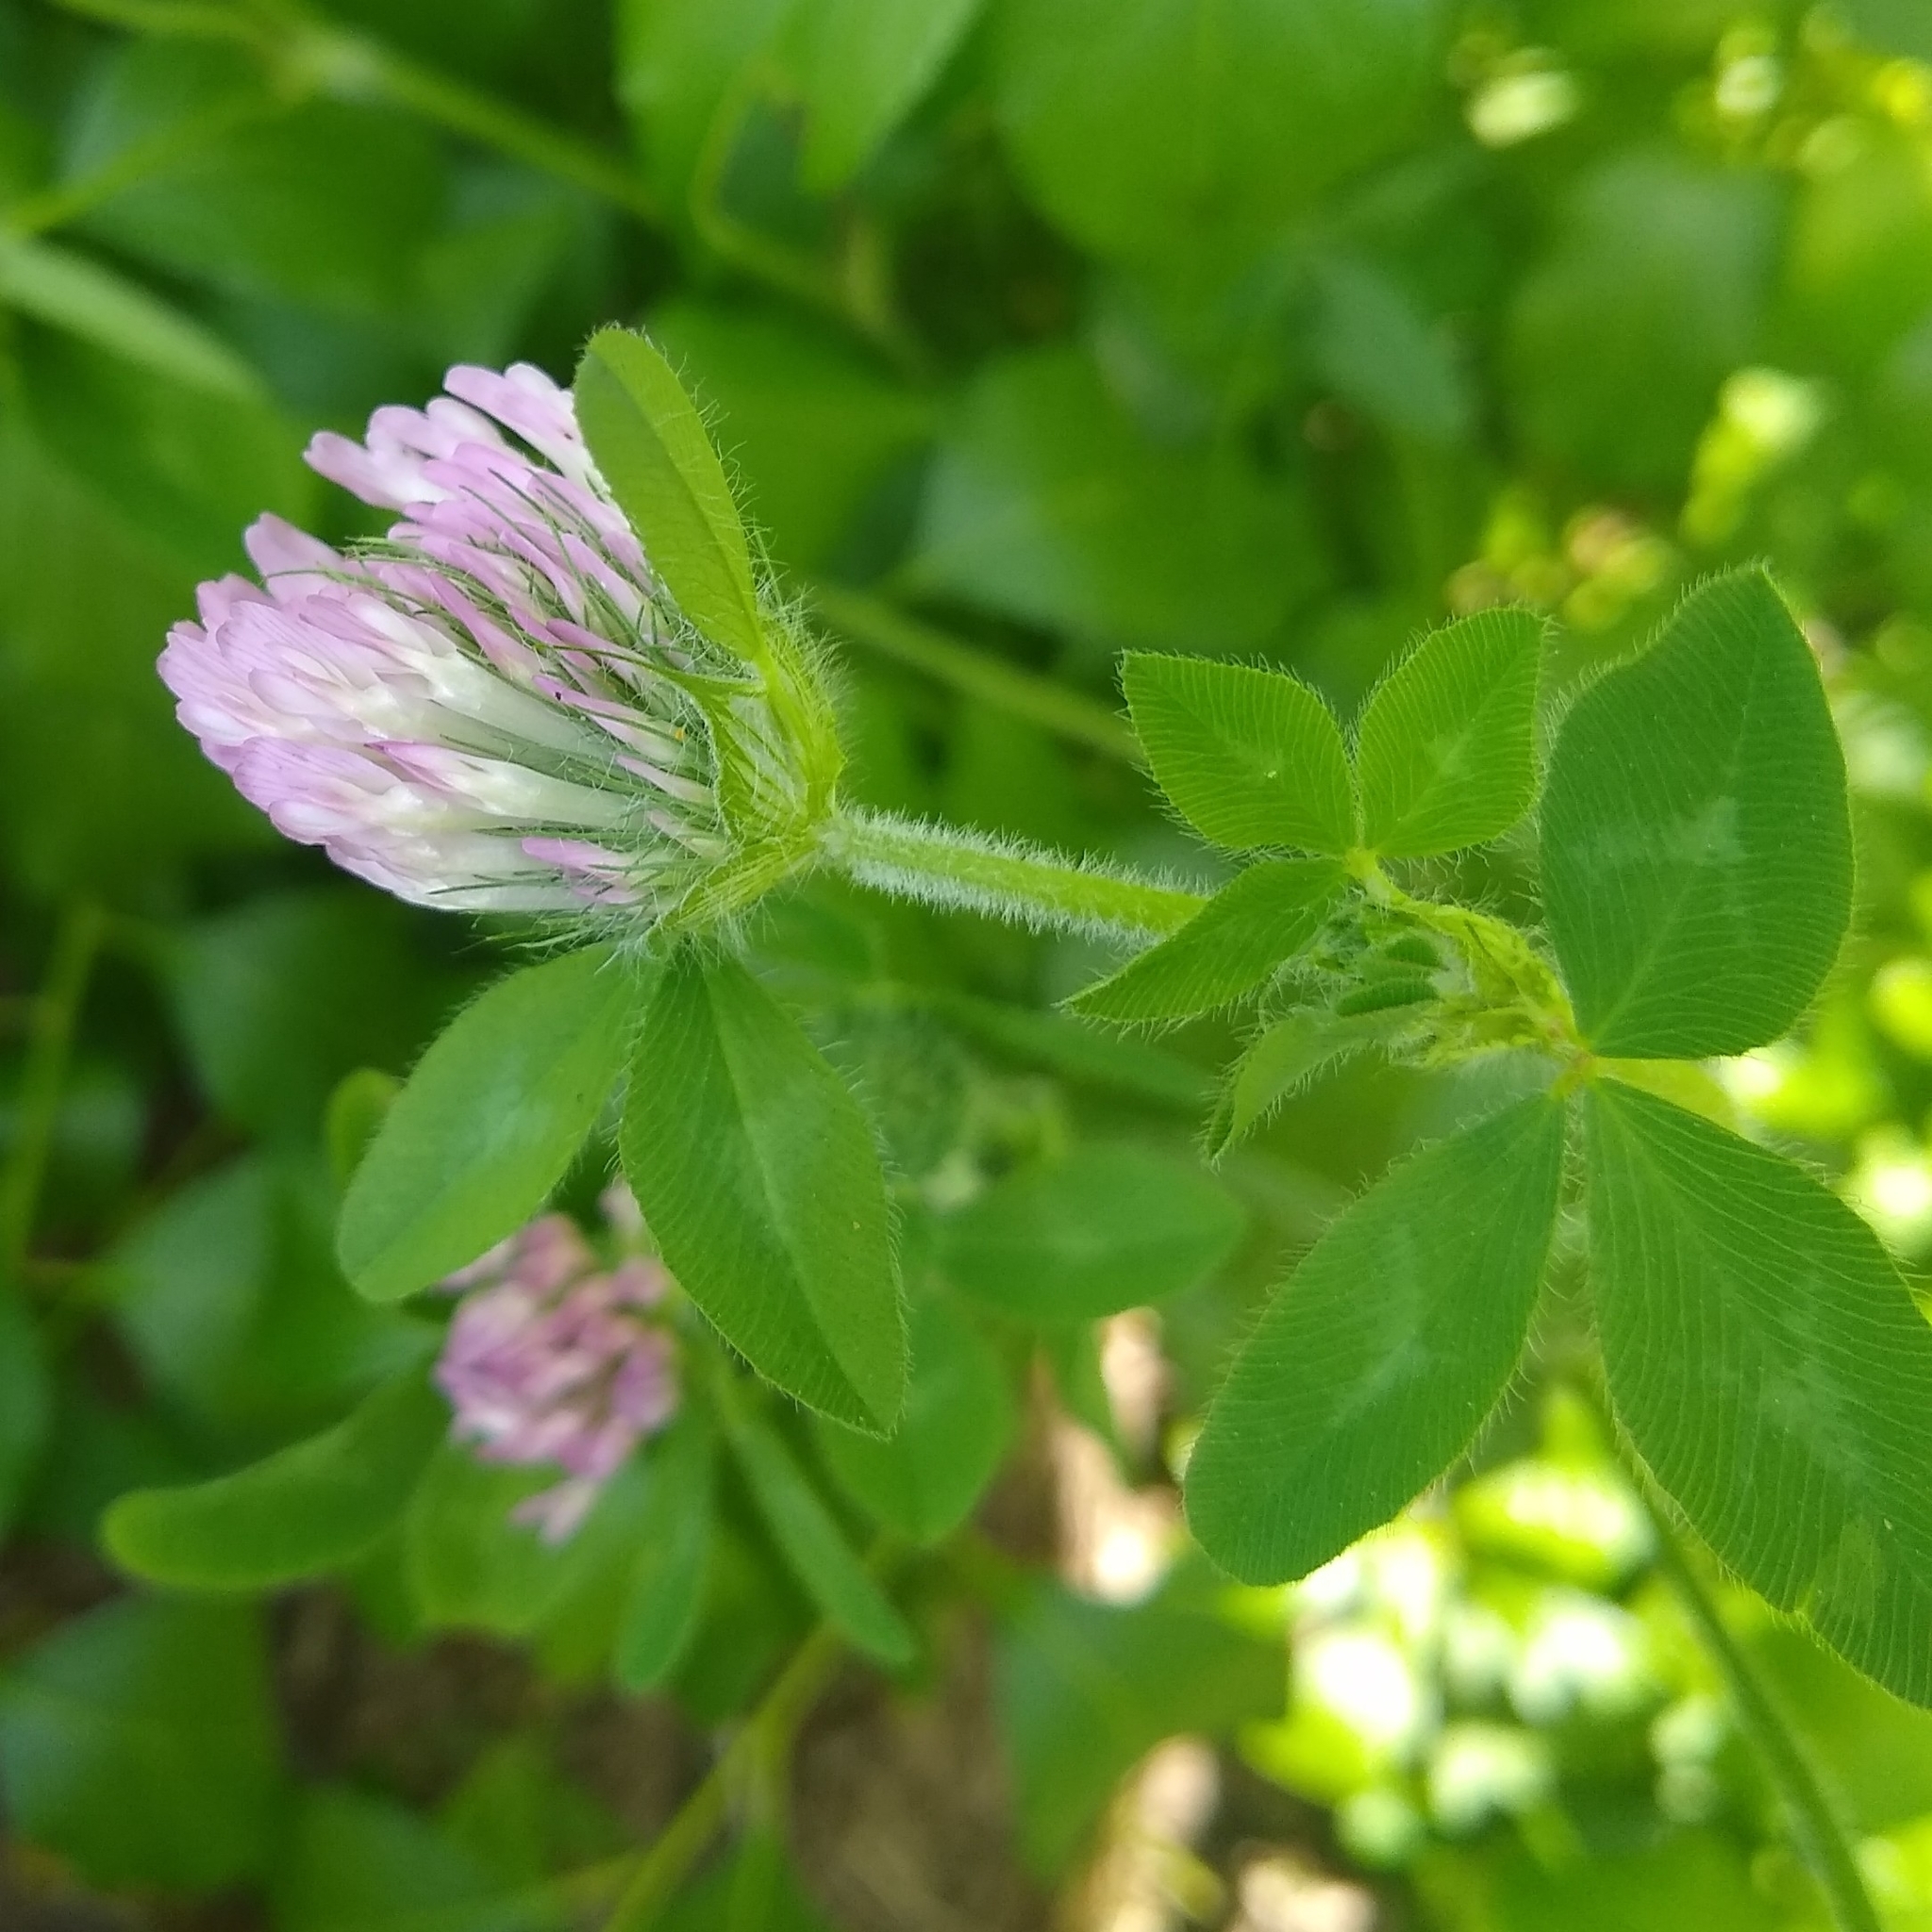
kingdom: Plantae
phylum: Tracheophyta
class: Magnoliopsida
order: Fabales
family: Fabaceae
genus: Trifolium
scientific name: Trifolium pratense
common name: Red clover
